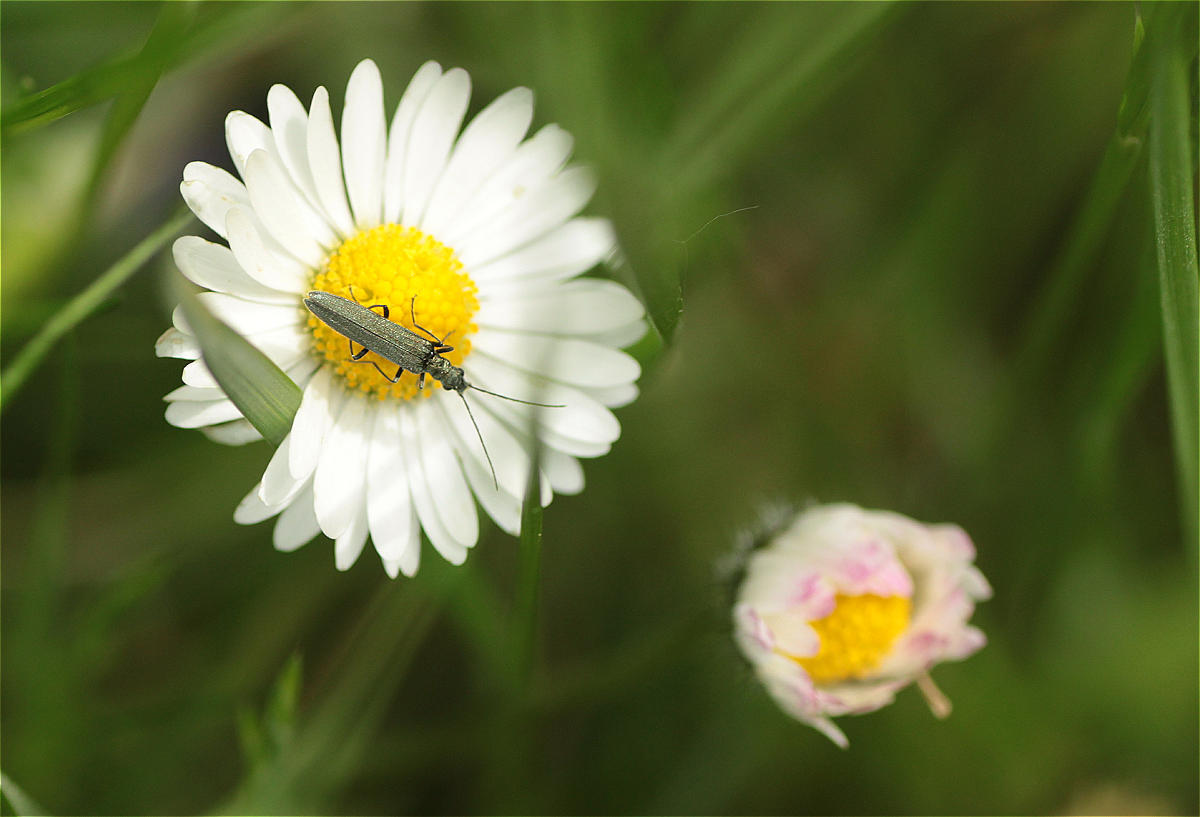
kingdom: Plantae
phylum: Tracheophyta
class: Magnoliopsida
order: Asterales
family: Asteraceae
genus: Bellis
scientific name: Bellis perennis
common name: Lawndaisy
